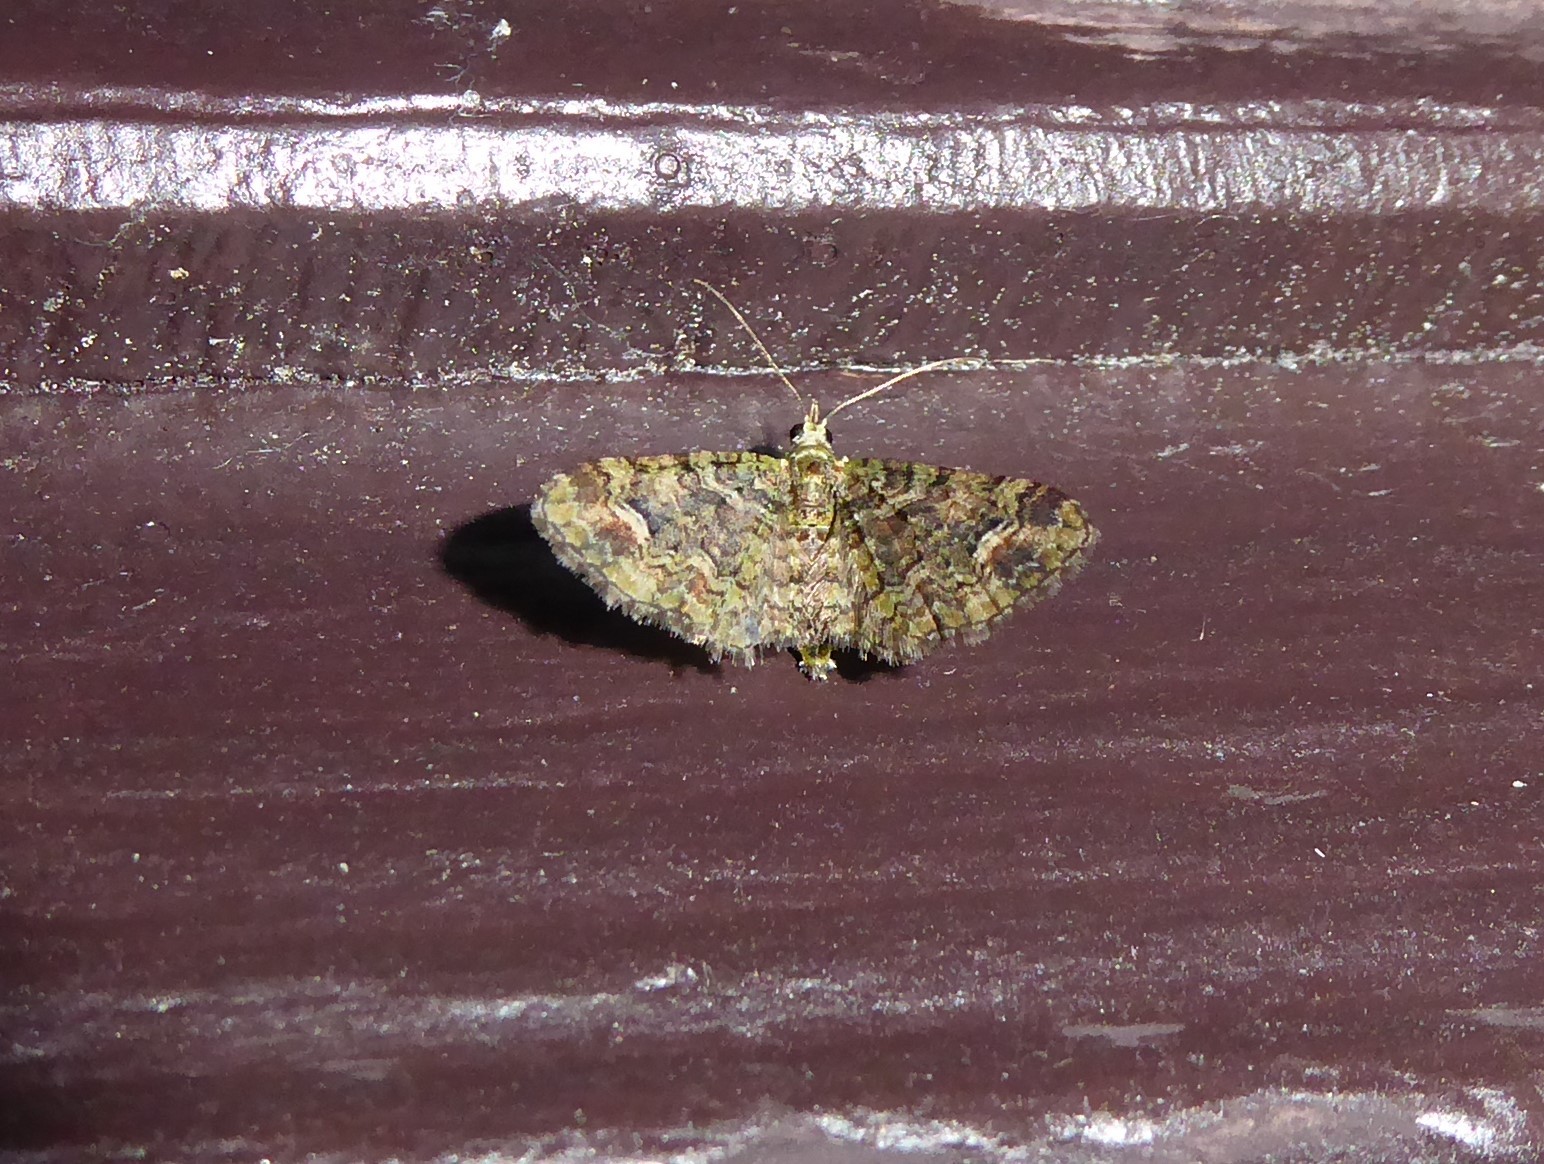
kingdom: Animalia
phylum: Arthropoda
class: Insecta
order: Lepidoptera
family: Geometridae
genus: Idaea
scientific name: Idaea mutanda
